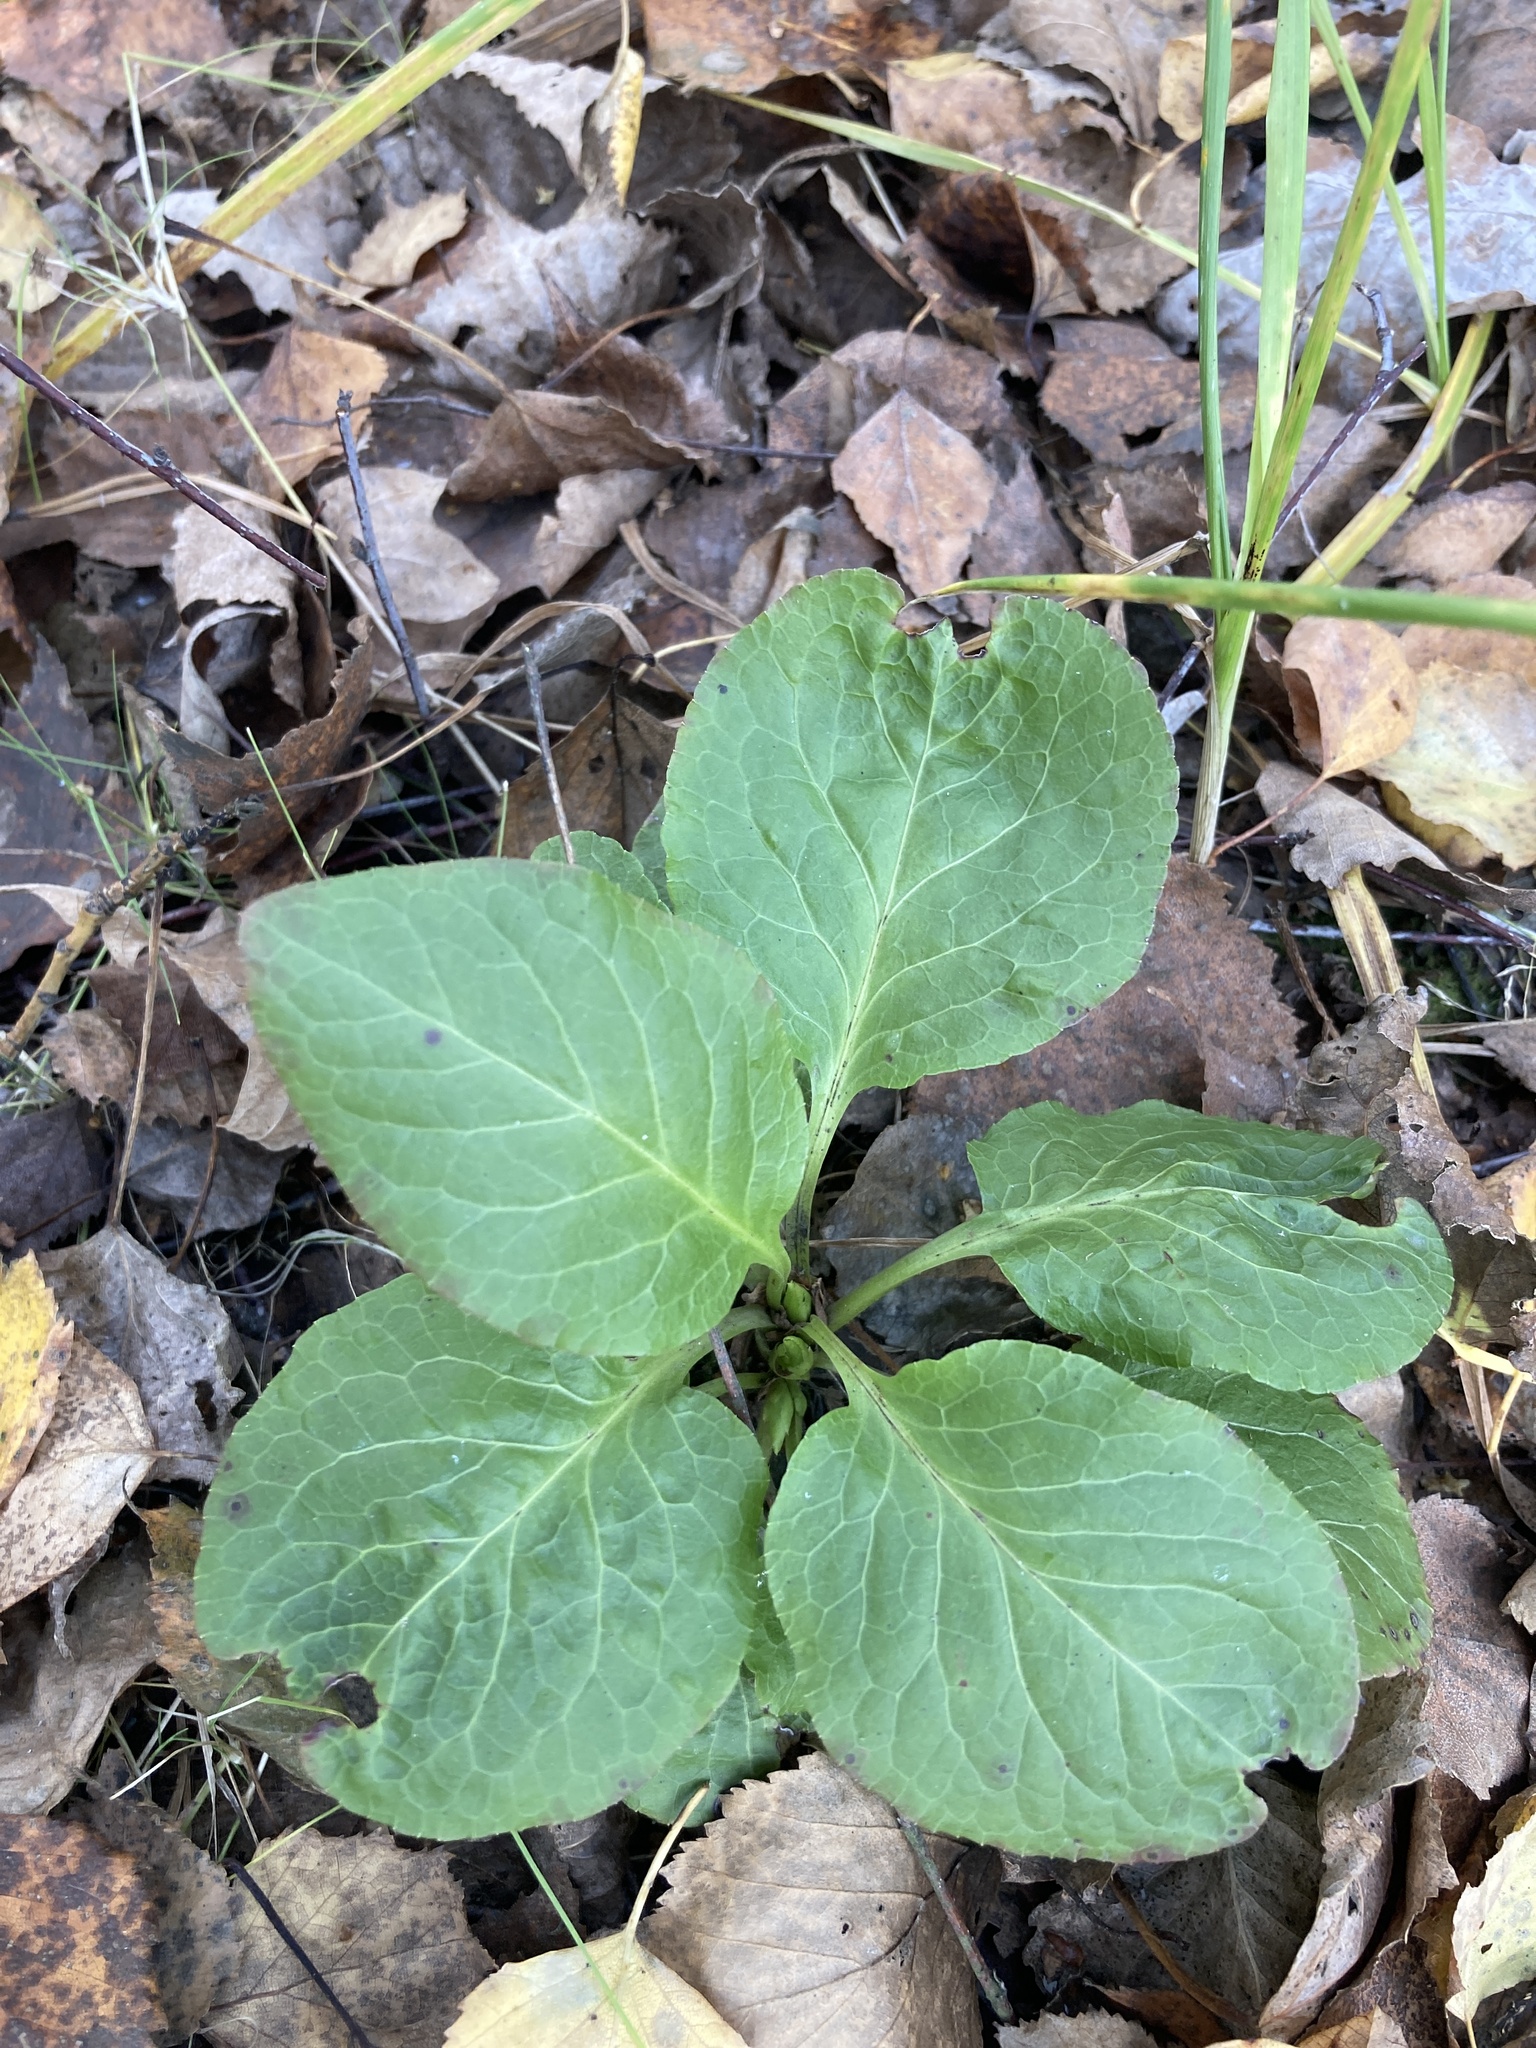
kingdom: Plantae
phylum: Tracheophyta
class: Magnoliopsida
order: Ericales
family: Ericaceae
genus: Pyrola
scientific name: Pyrola minor
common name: Common wintergreen
